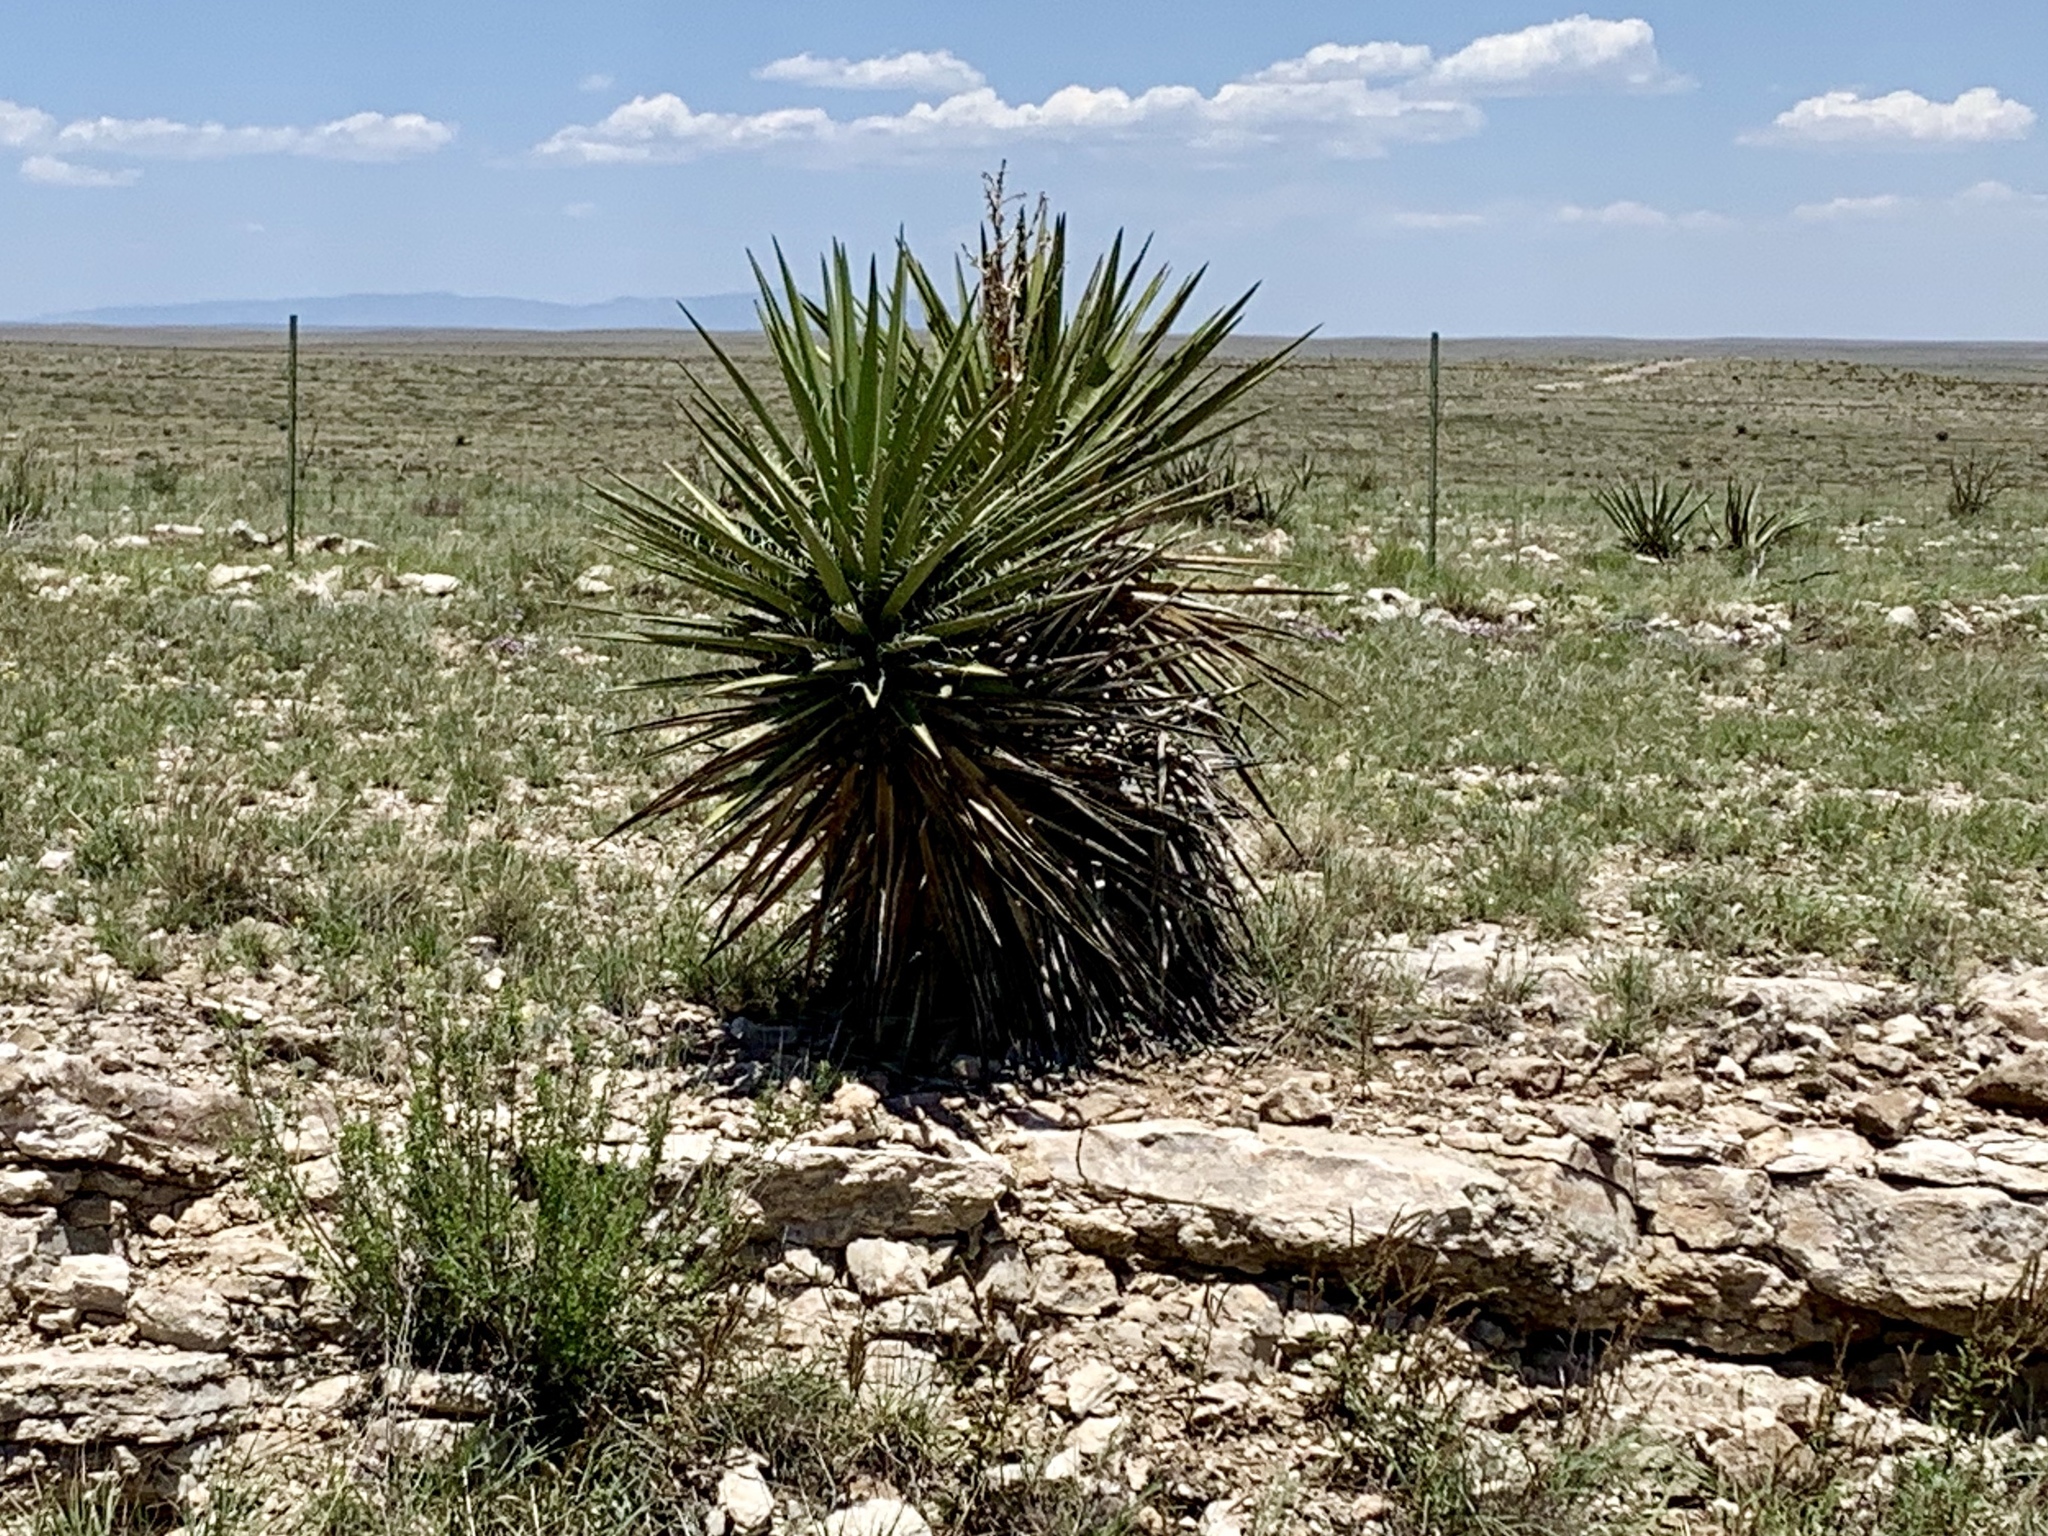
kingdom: Plantae
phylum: Tracheophyta
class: Liliopsida
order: Asparagales
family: Asparagaceae
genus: Yucca
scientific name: Yucca treculiana
